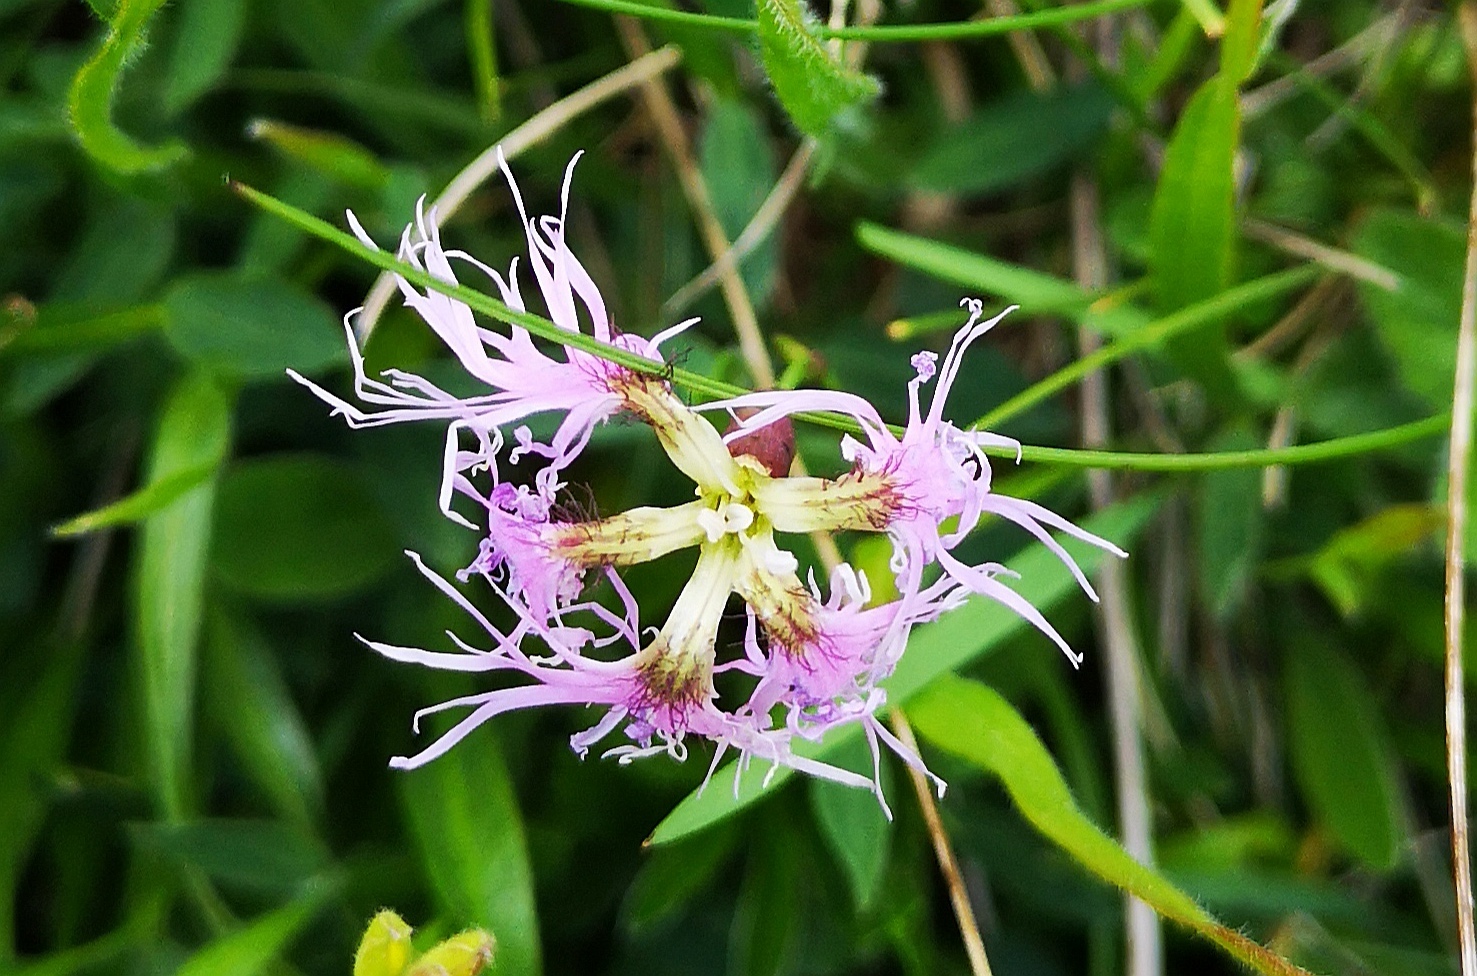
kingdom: Plantae
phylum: Tracheophyta
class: Magnoliopsida
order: Caryophyllales
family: Caryophyllaceae
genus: Dianthus
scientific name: Dianthus superbus
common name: Fringed pink
